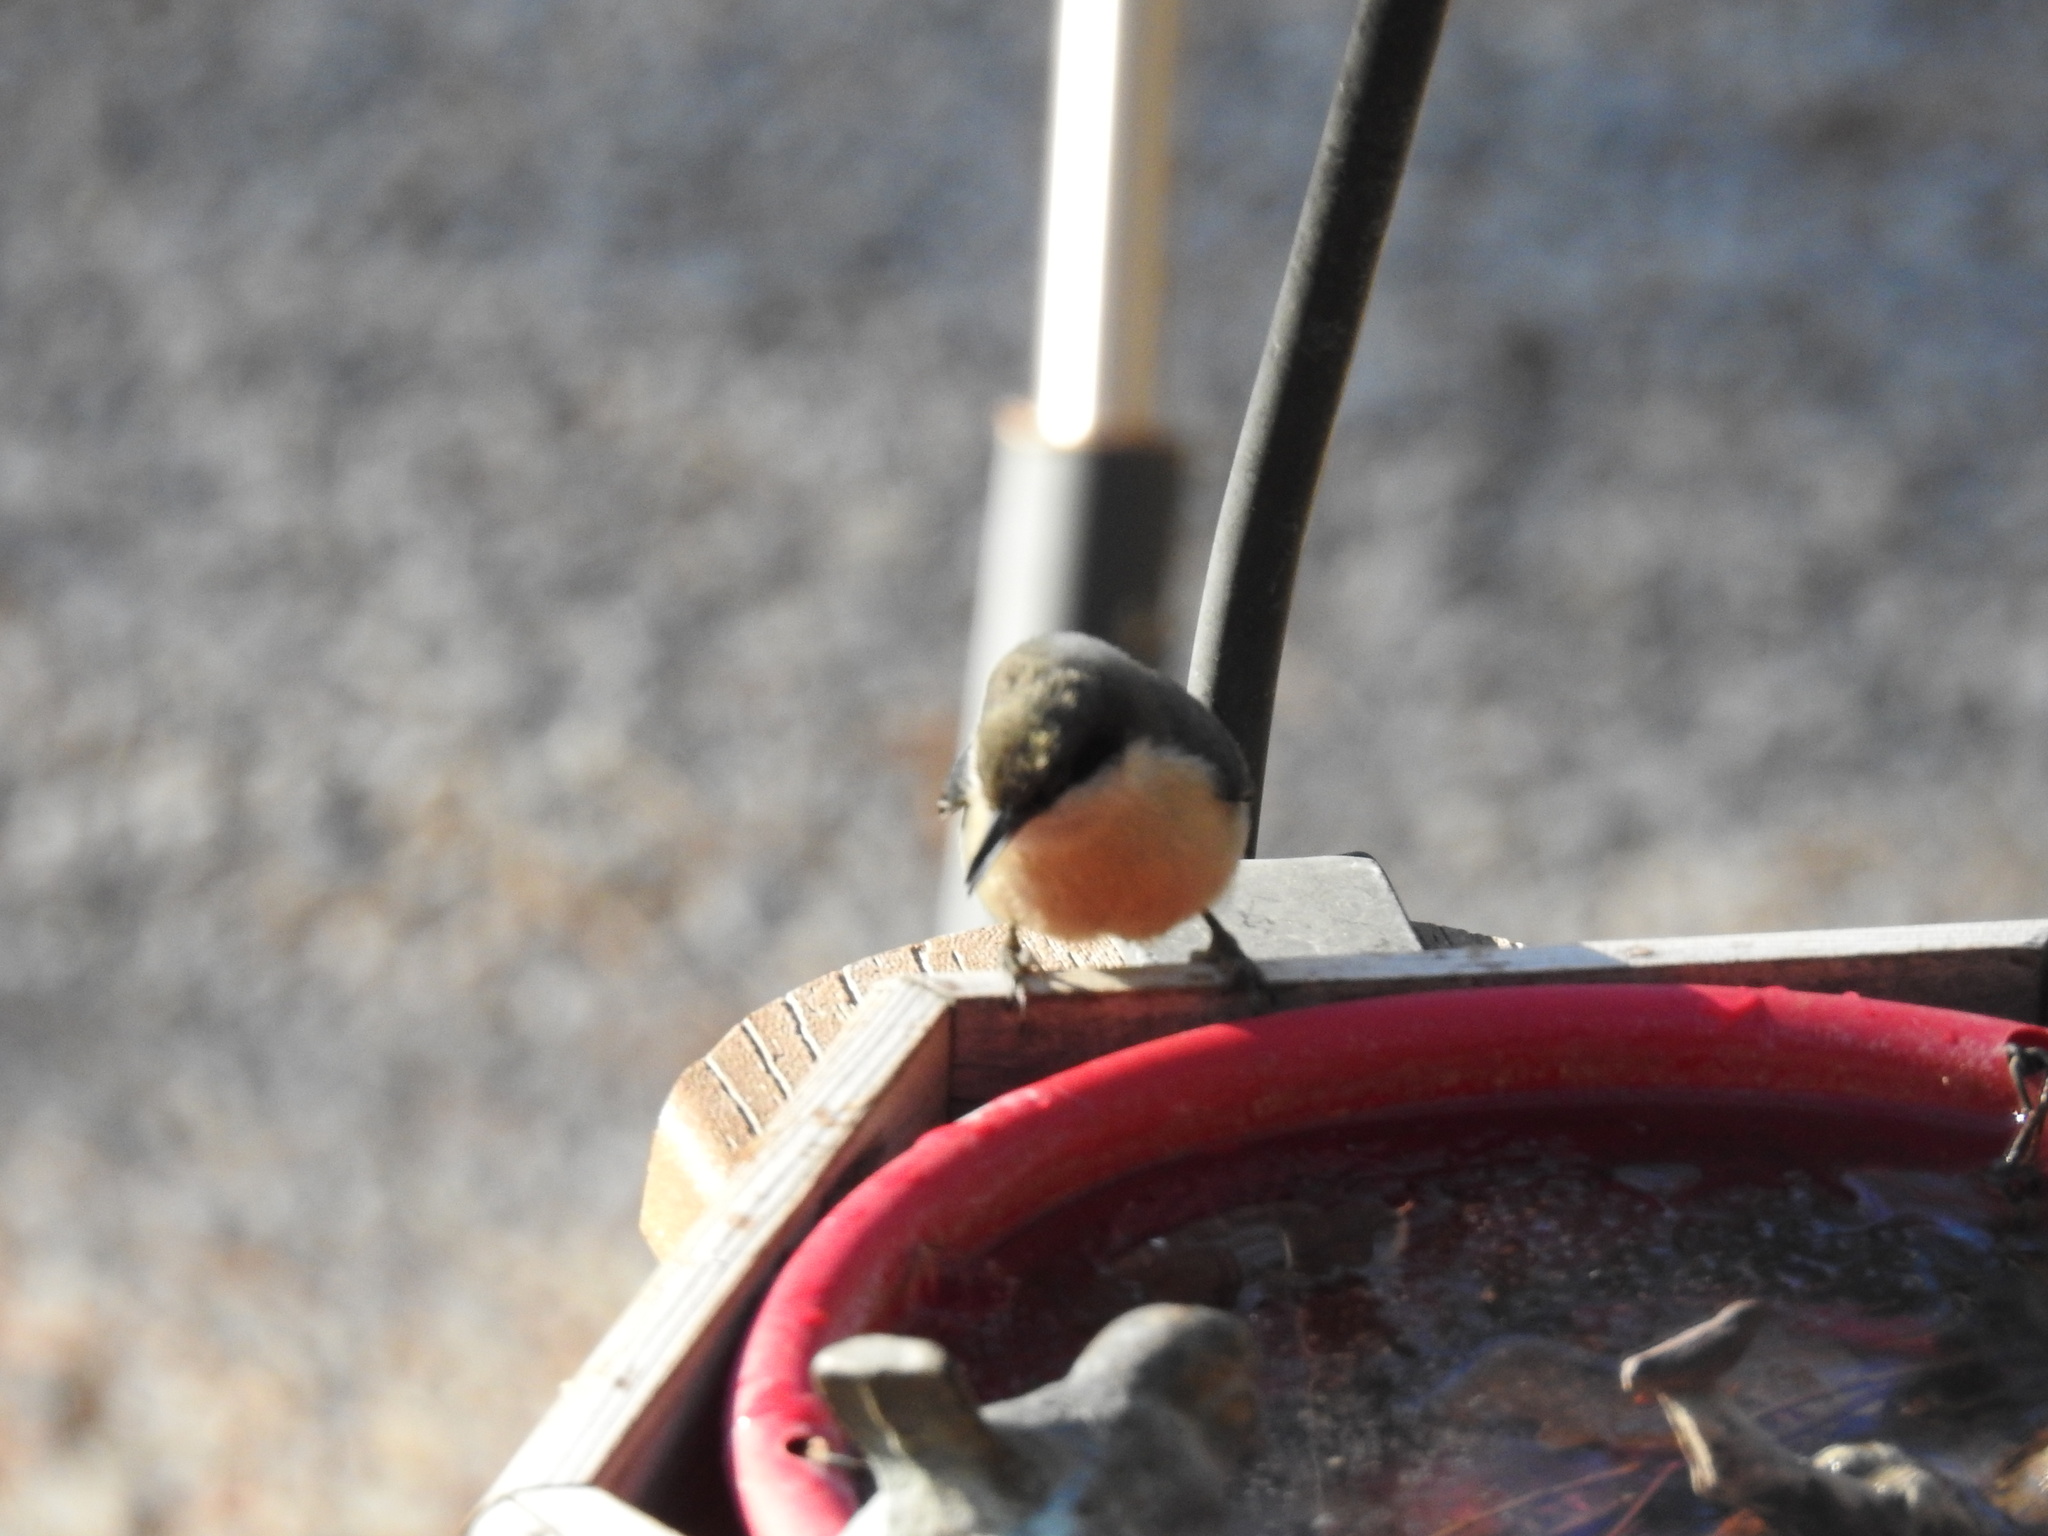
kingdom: Animalia
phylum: Chordata
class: Aves
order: Passeriformes
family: Sittidae
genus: Sitta
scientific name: Sitta pygmaea
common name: Pygmy nuthatch
